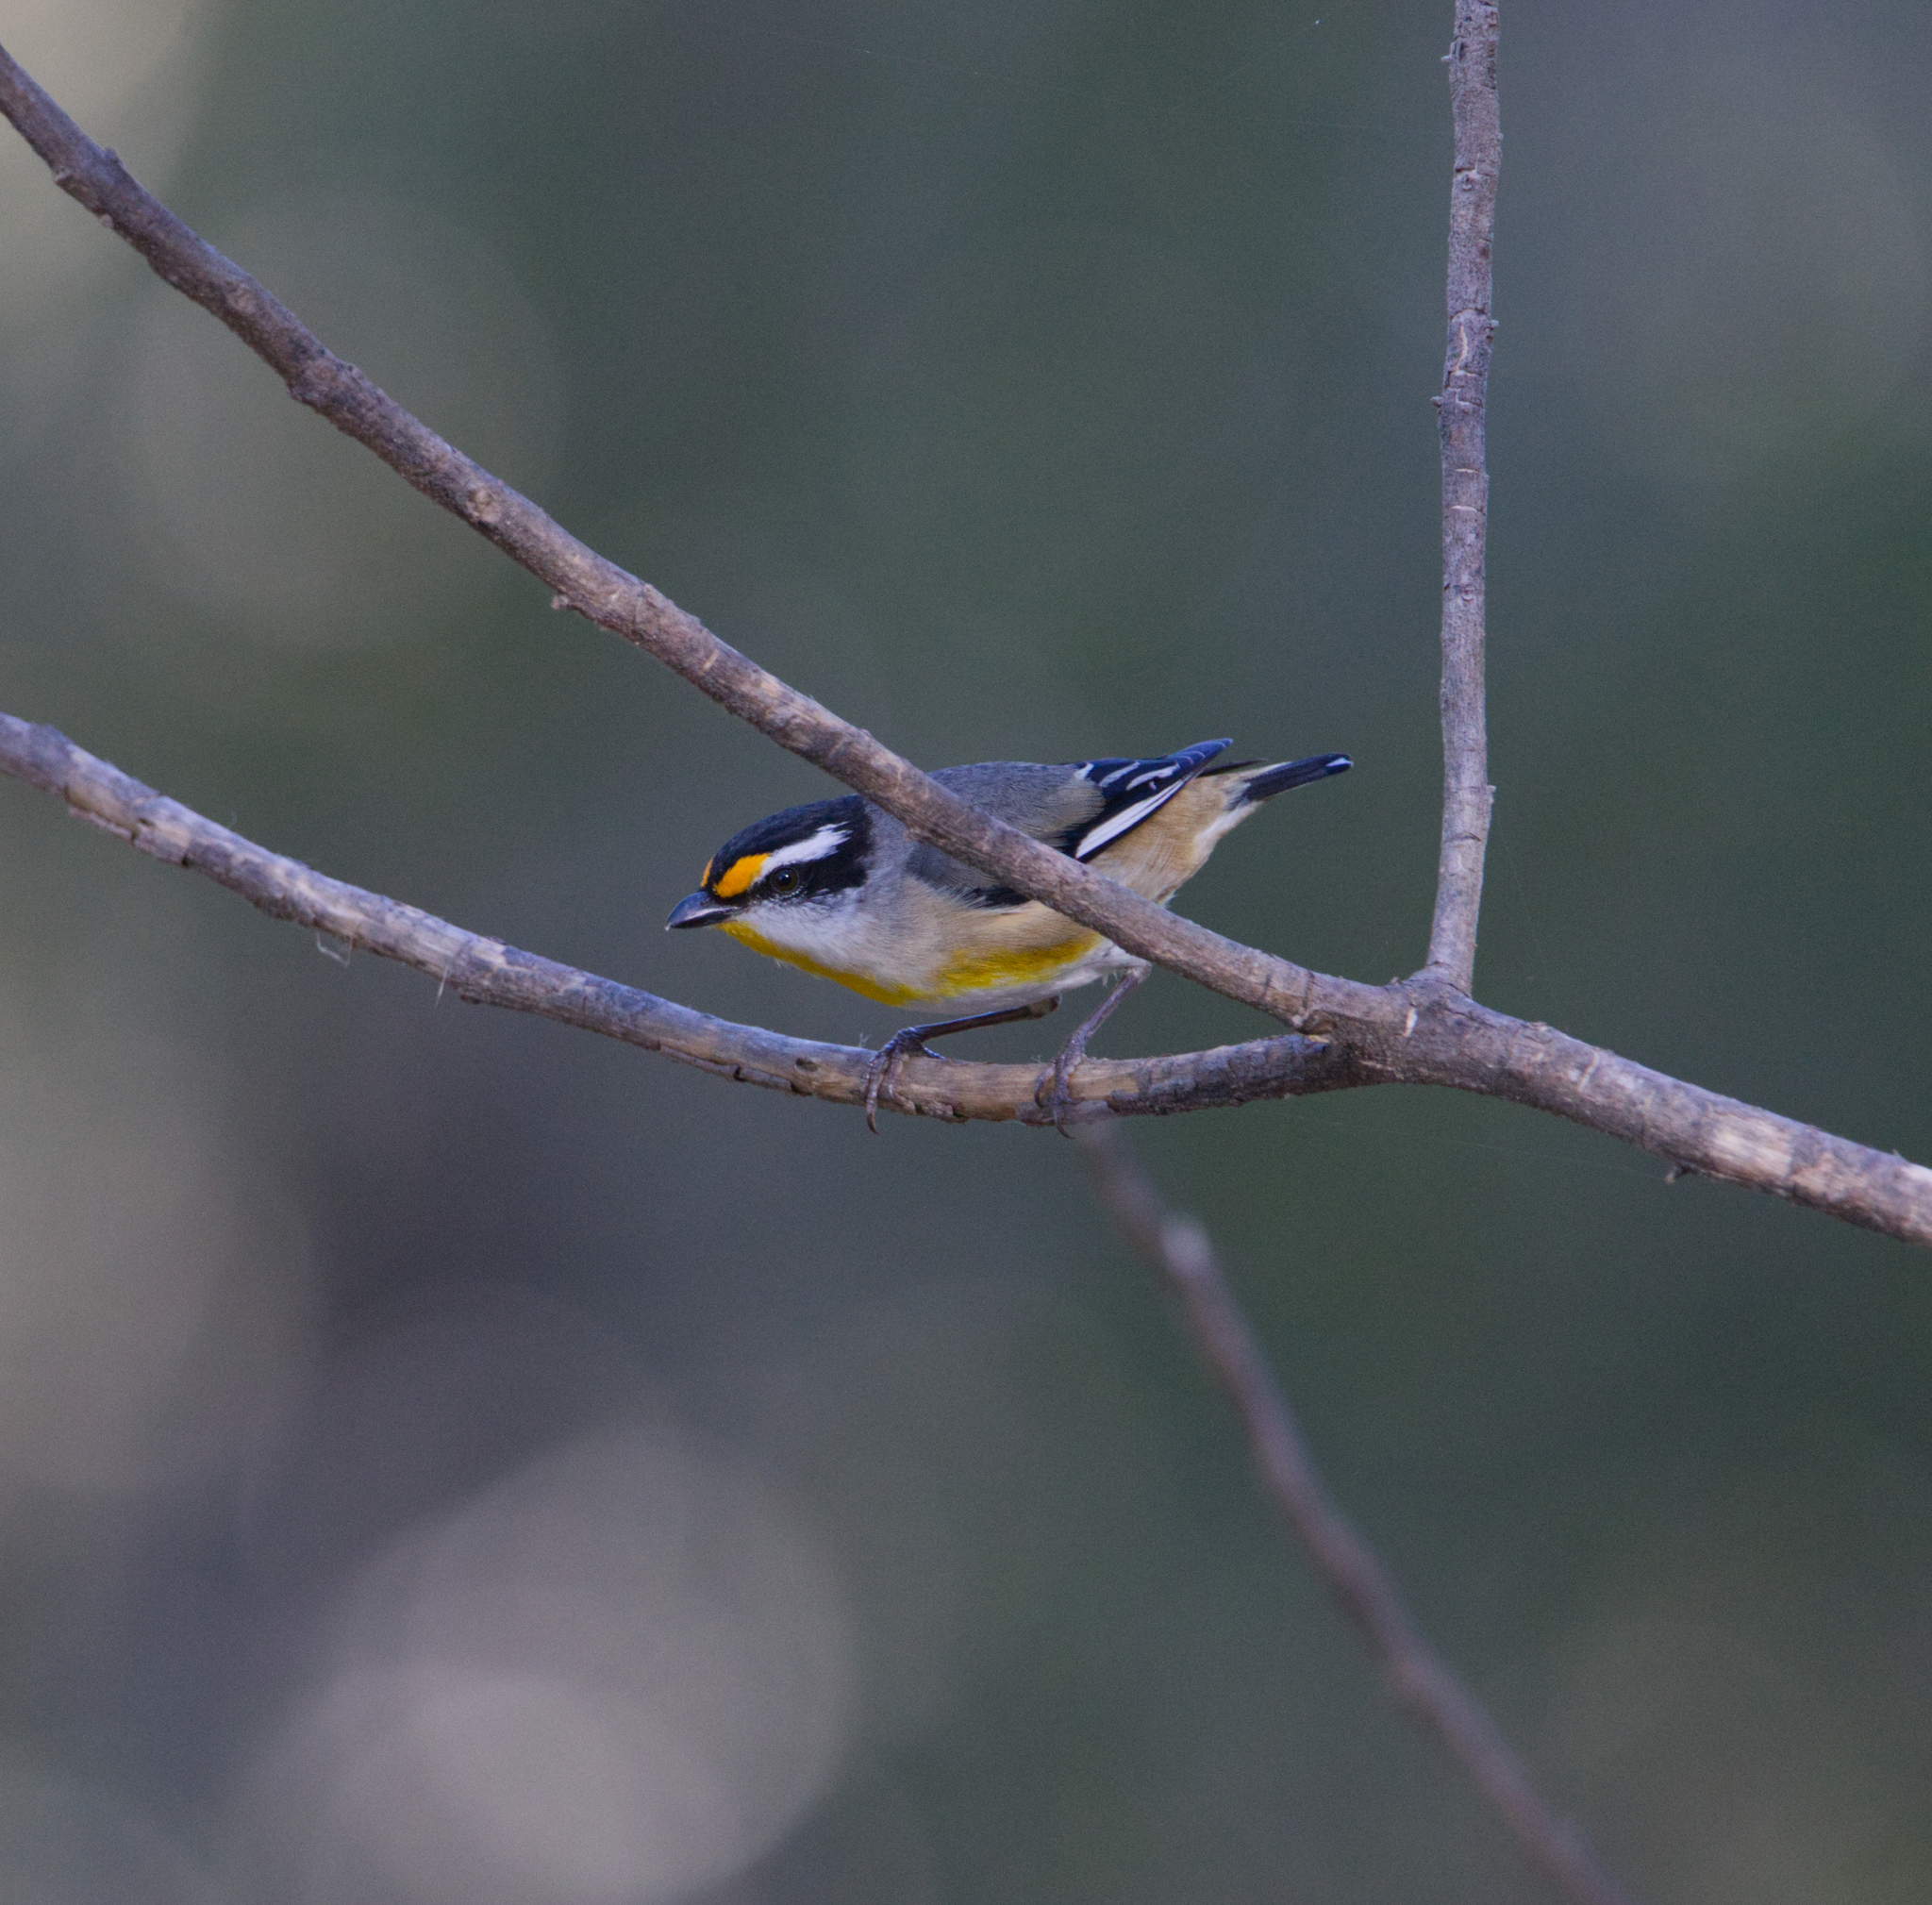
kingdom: Animalia
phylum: Chordata
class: Aves
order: Passeriformes
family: Pardalotidae
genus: Pardalotus
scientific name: Pardalotus striatus
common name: Striated pardalote
